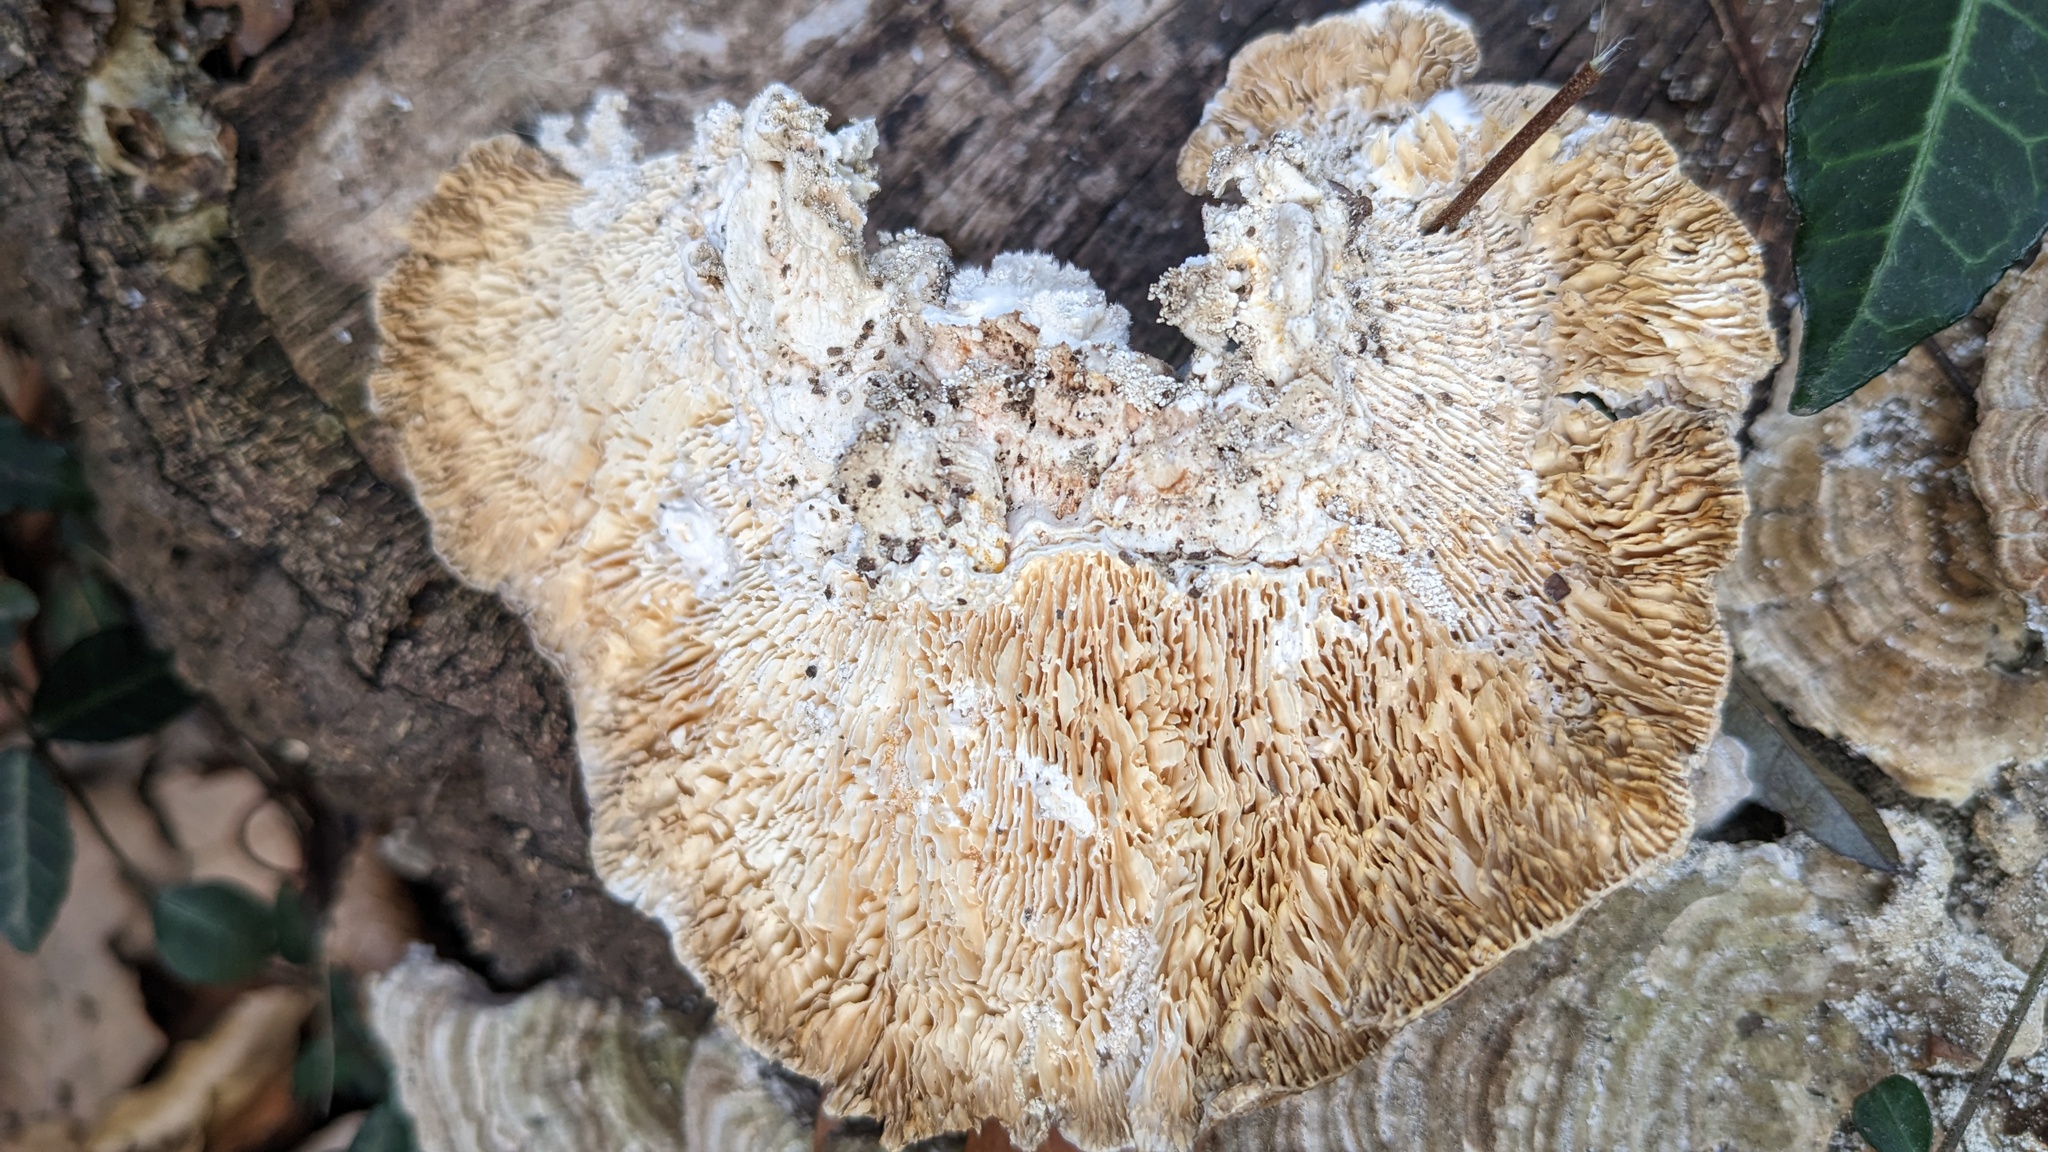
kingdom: Fungi
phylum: Basidiomycota
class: Agaricomycetes
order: Polyporales
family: Polyporaceae
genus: Lenzites
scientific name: Lenzites betulinus
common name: Birch mazegill
